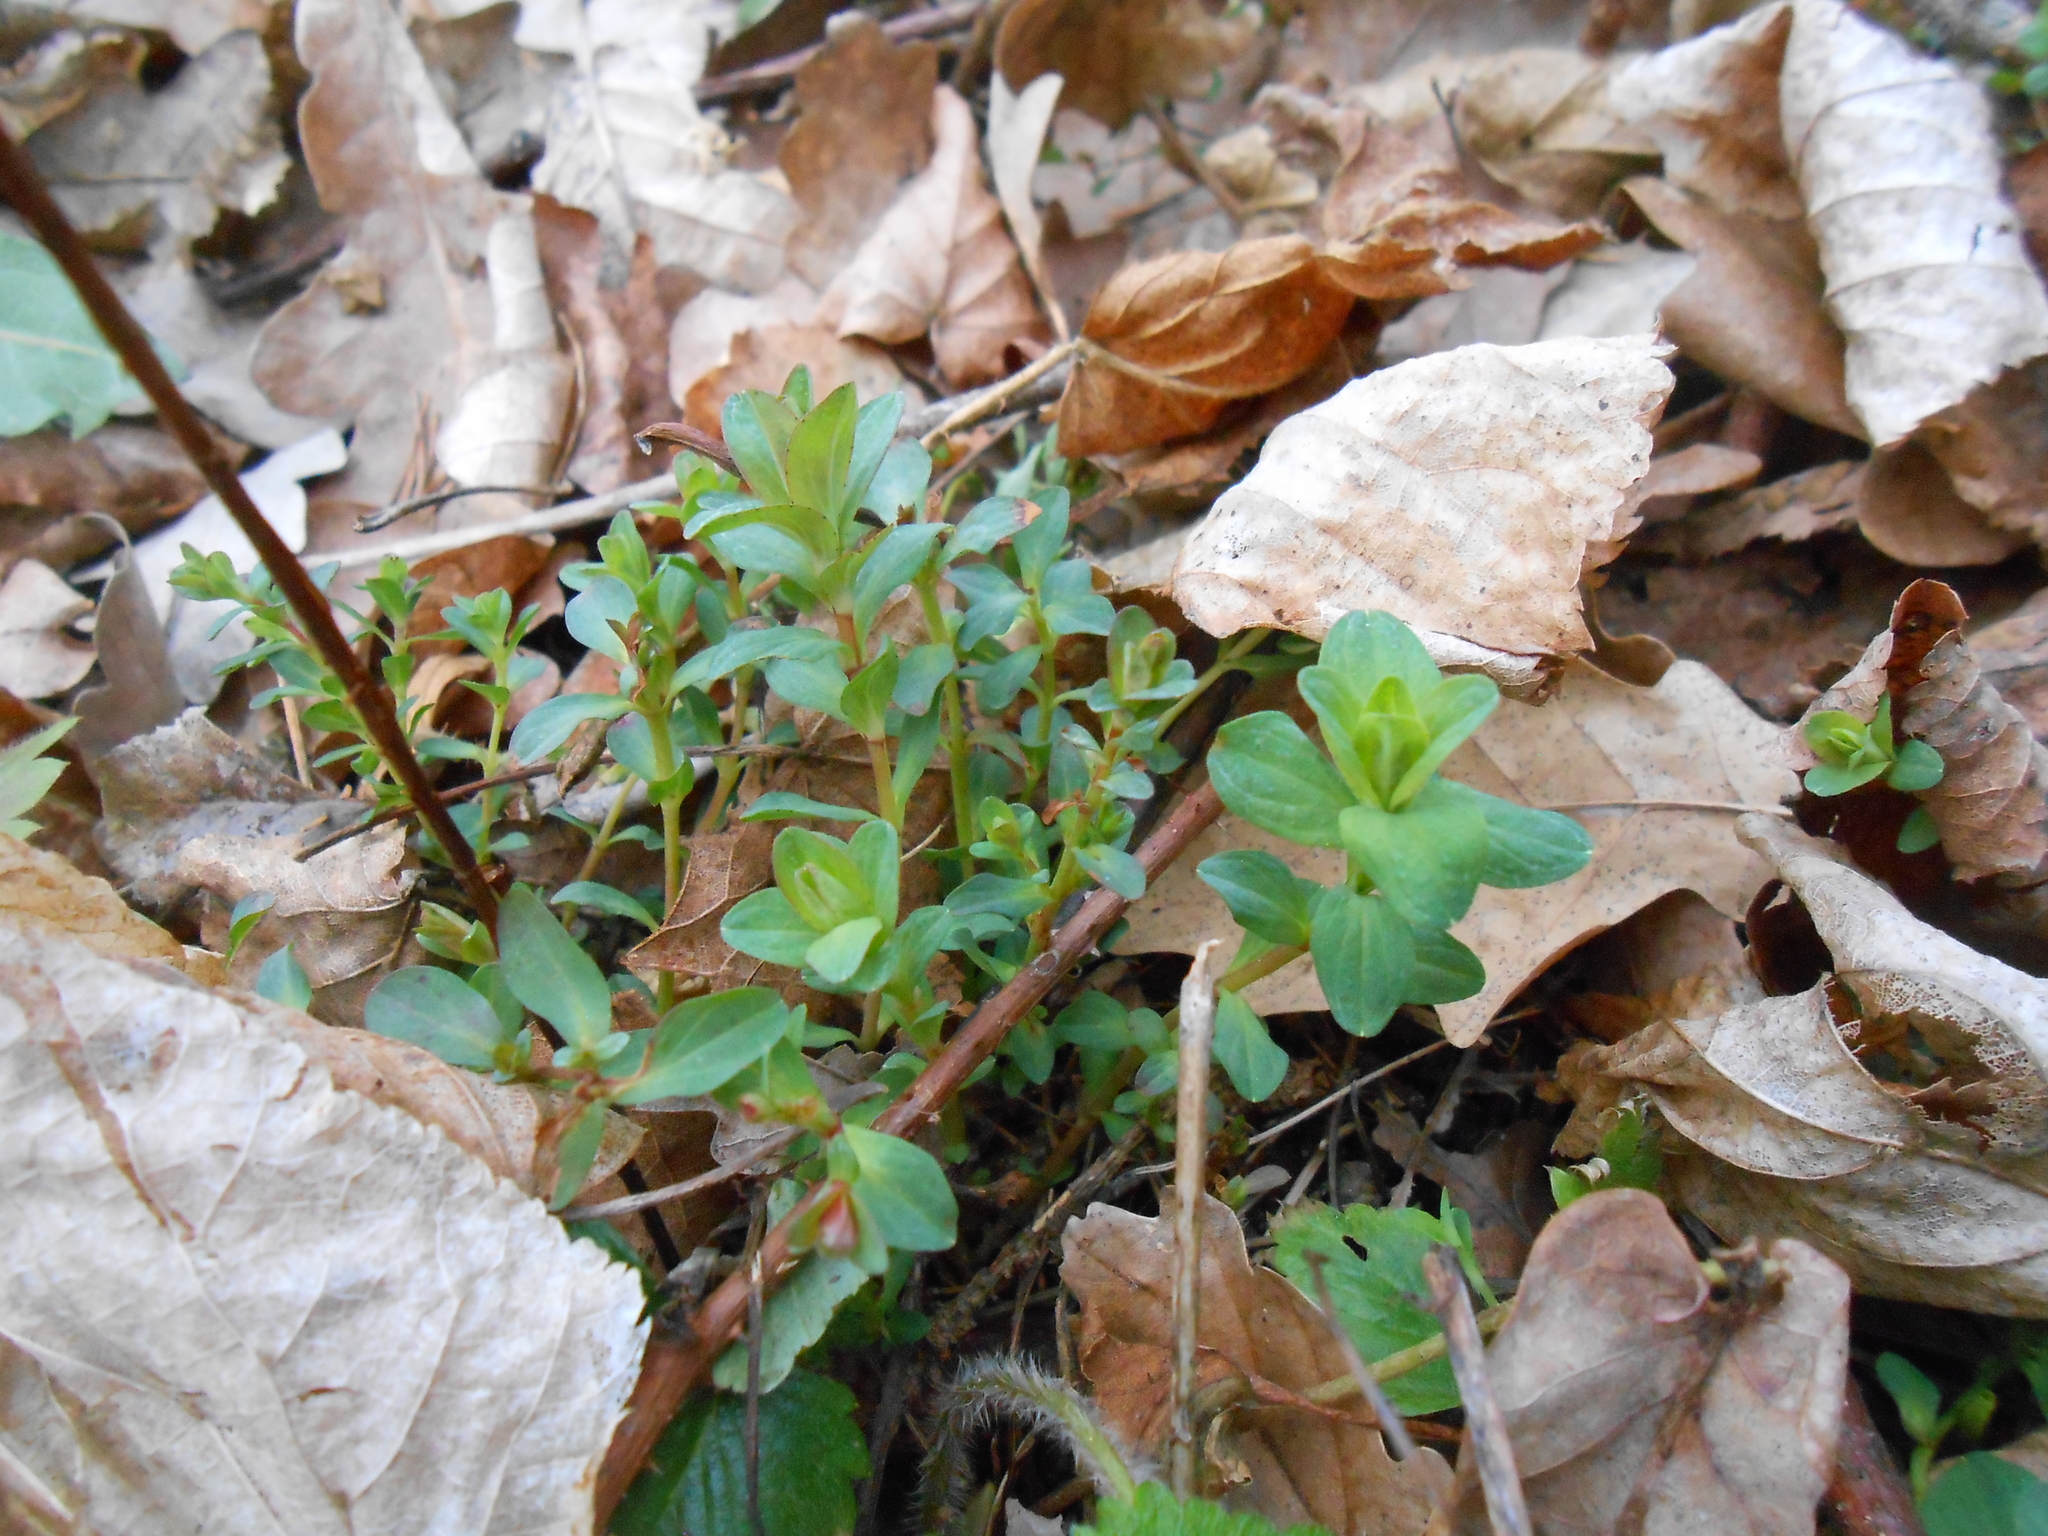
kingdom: Plantae
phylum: Tracheophyta
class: Magnoliopsida
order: Malpighiales
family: Hypericaceae
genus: Hypericum
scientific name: Hypericum perforatum
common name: Common st. johnswort
